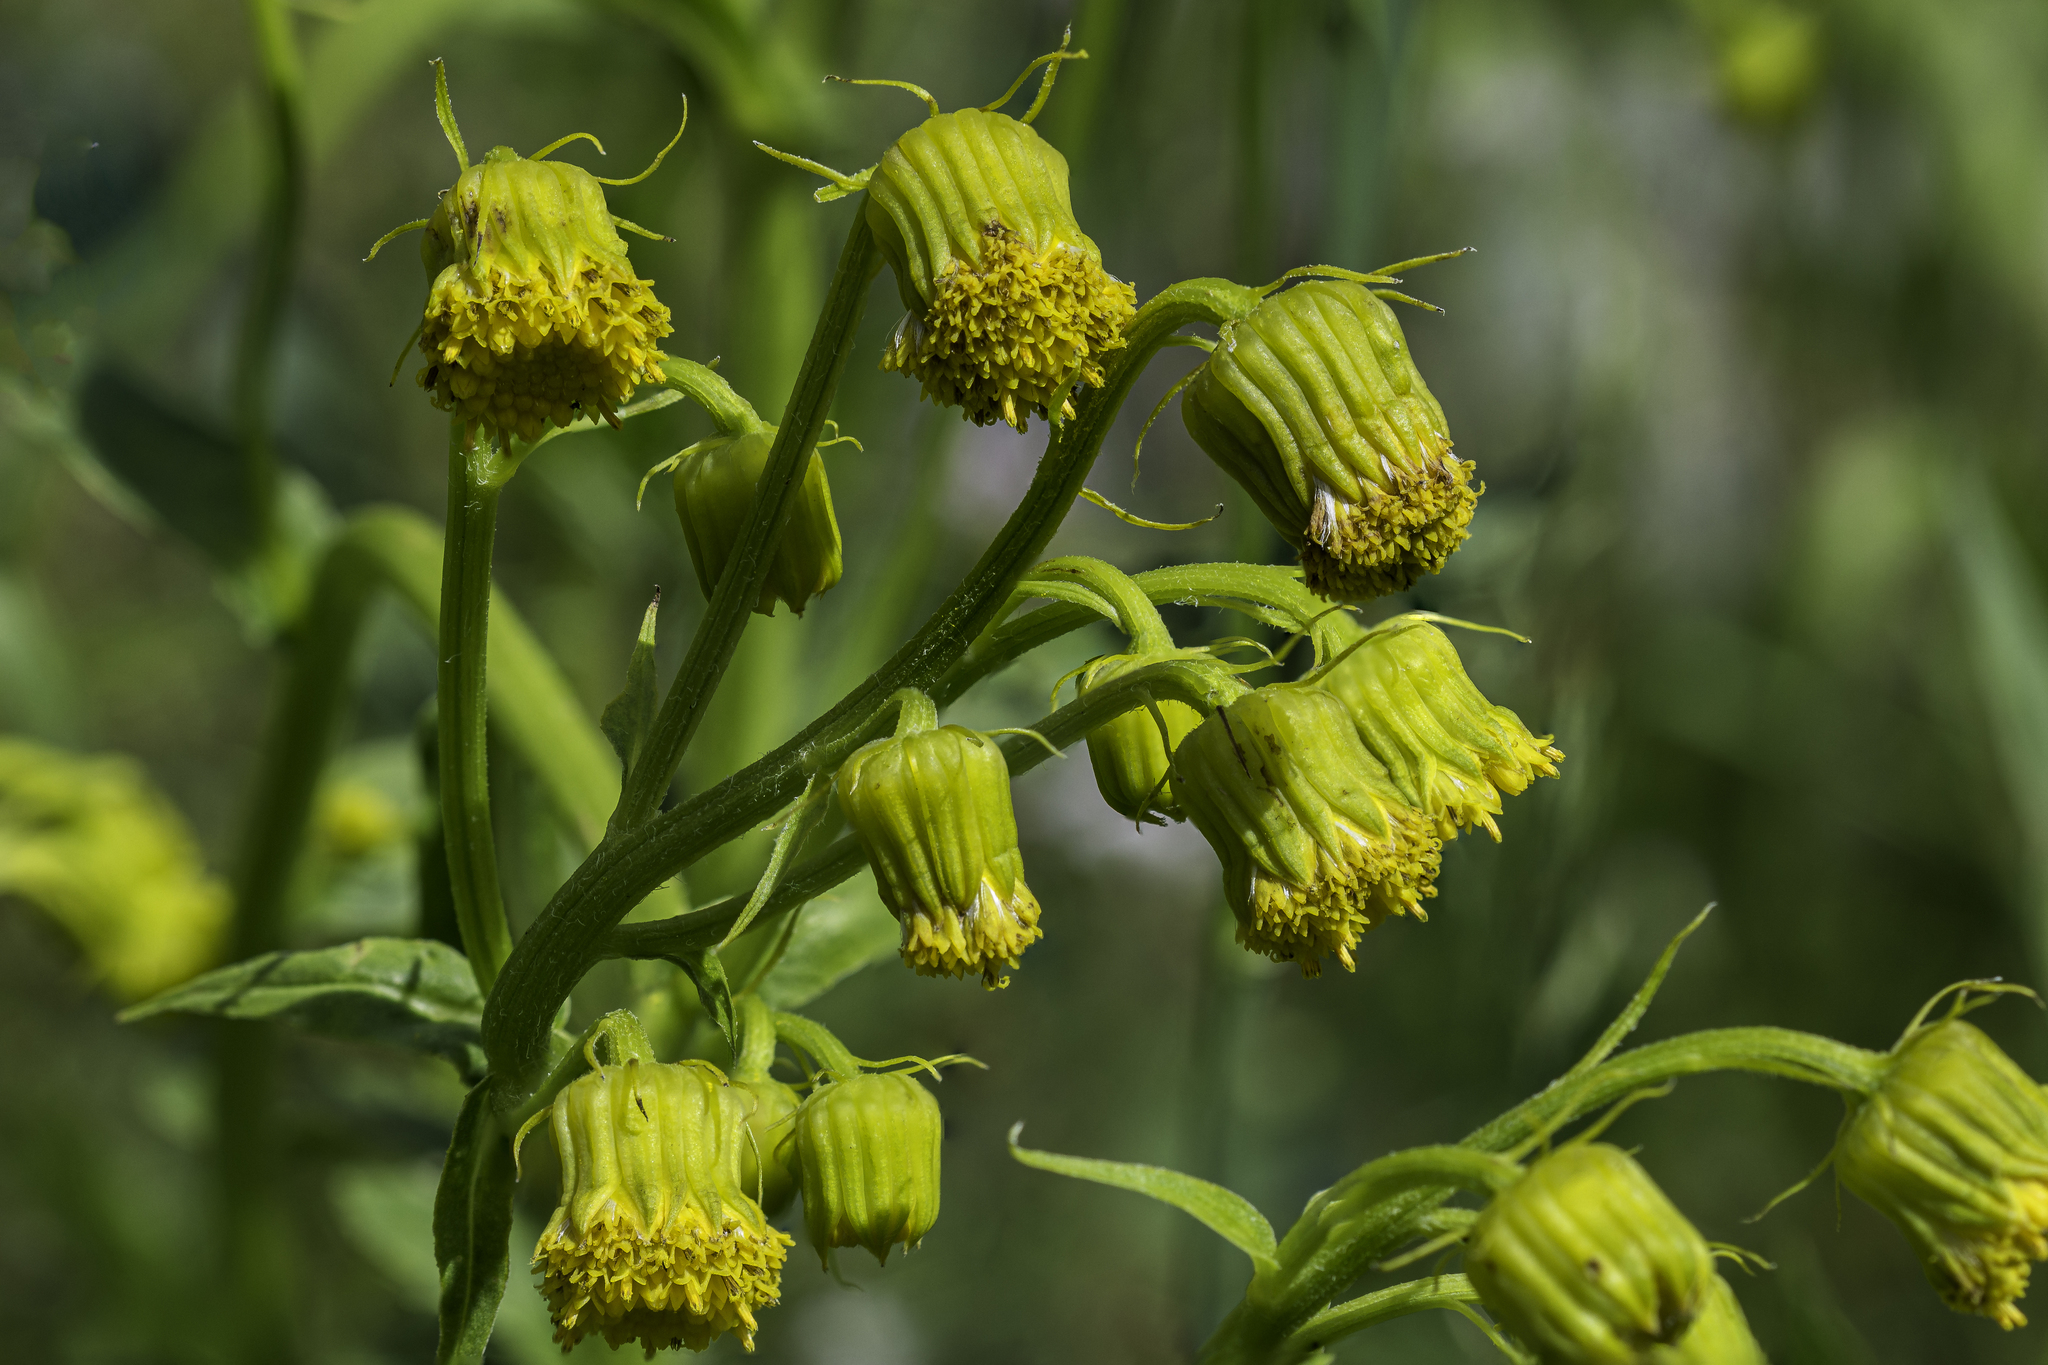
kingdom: Plantae
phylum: Tracheophyta
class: Magnoliopsida
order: Asterales
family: Asteraceae
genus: Senecio
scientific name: Senecio bigelovii
